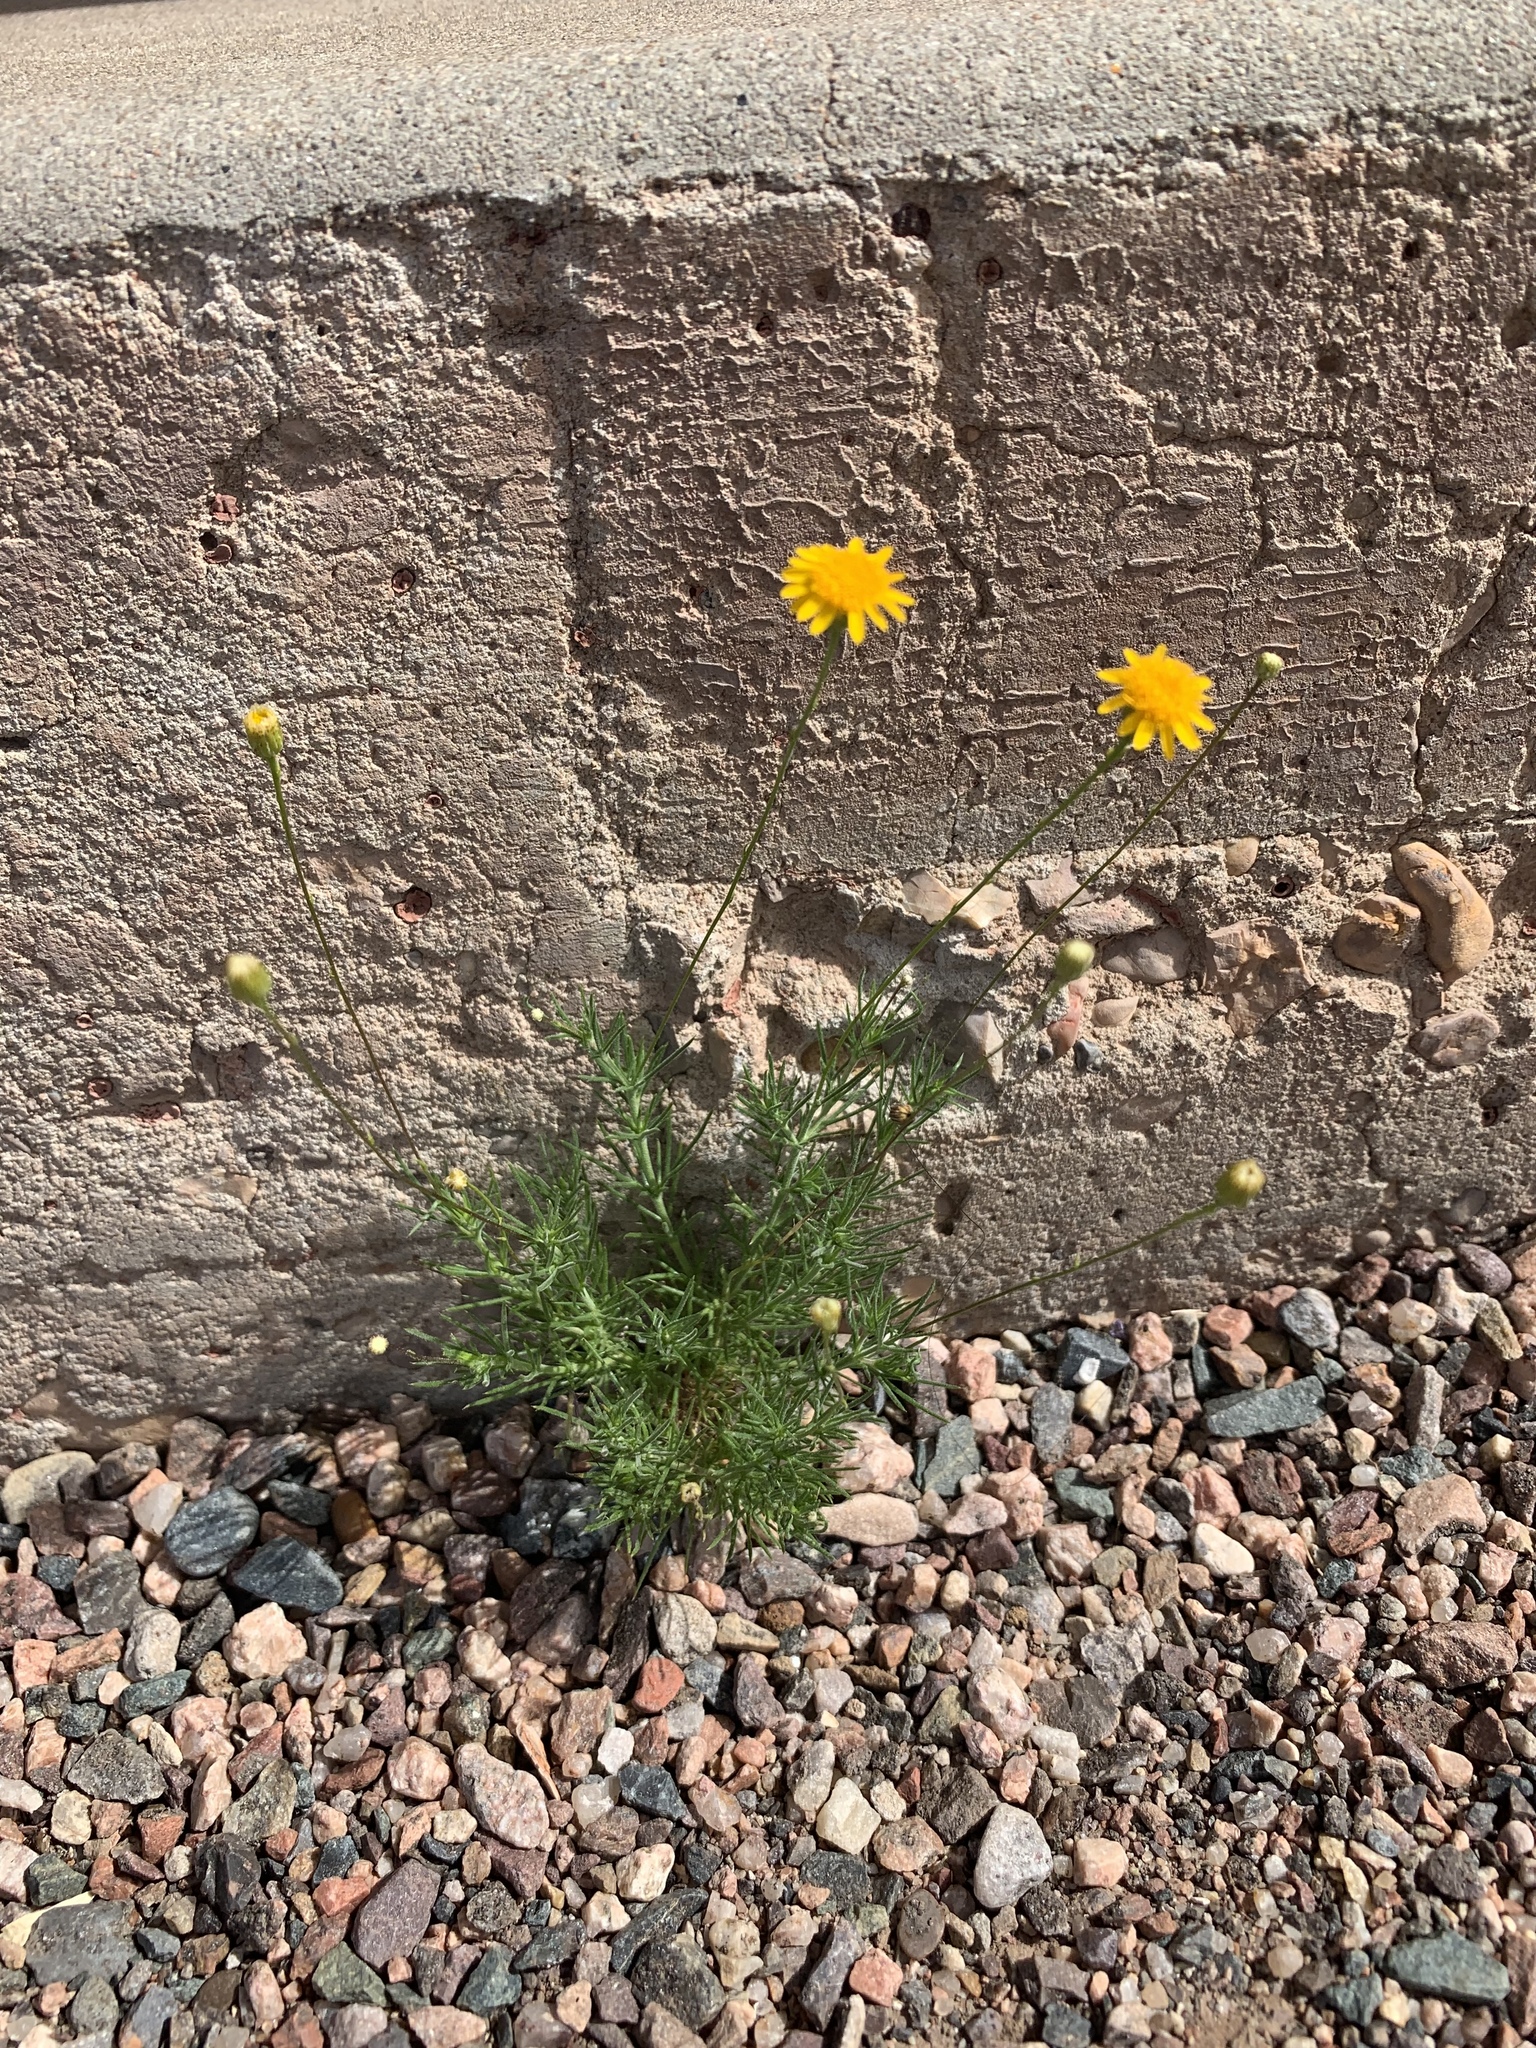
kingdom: Plantae
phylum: Tracheophyta
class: Magnoliopsida
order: Asterales
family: Asteraceae
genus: Thymophylla
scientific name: Thymophylla pentachaeta
